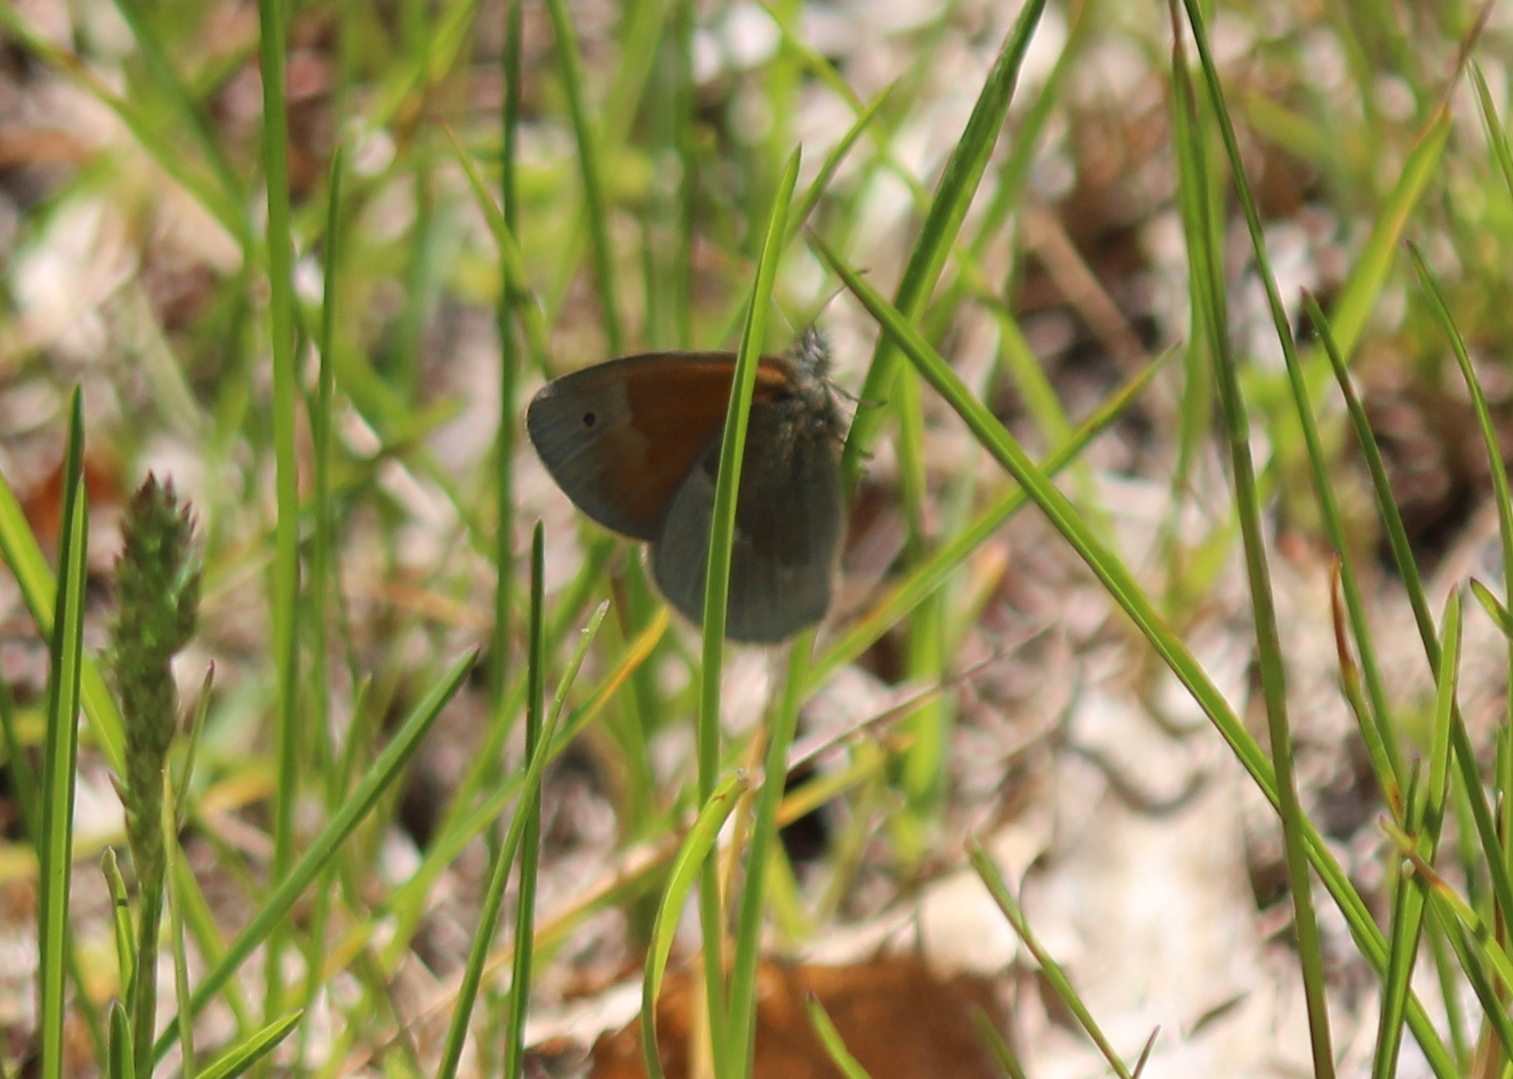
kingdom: Animalia
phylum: Arthropoda
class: Insecta
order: Lepidoptera
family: Nymphalidae
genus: Coenonympha
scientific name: Coenonympha california
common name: Common ringlet
